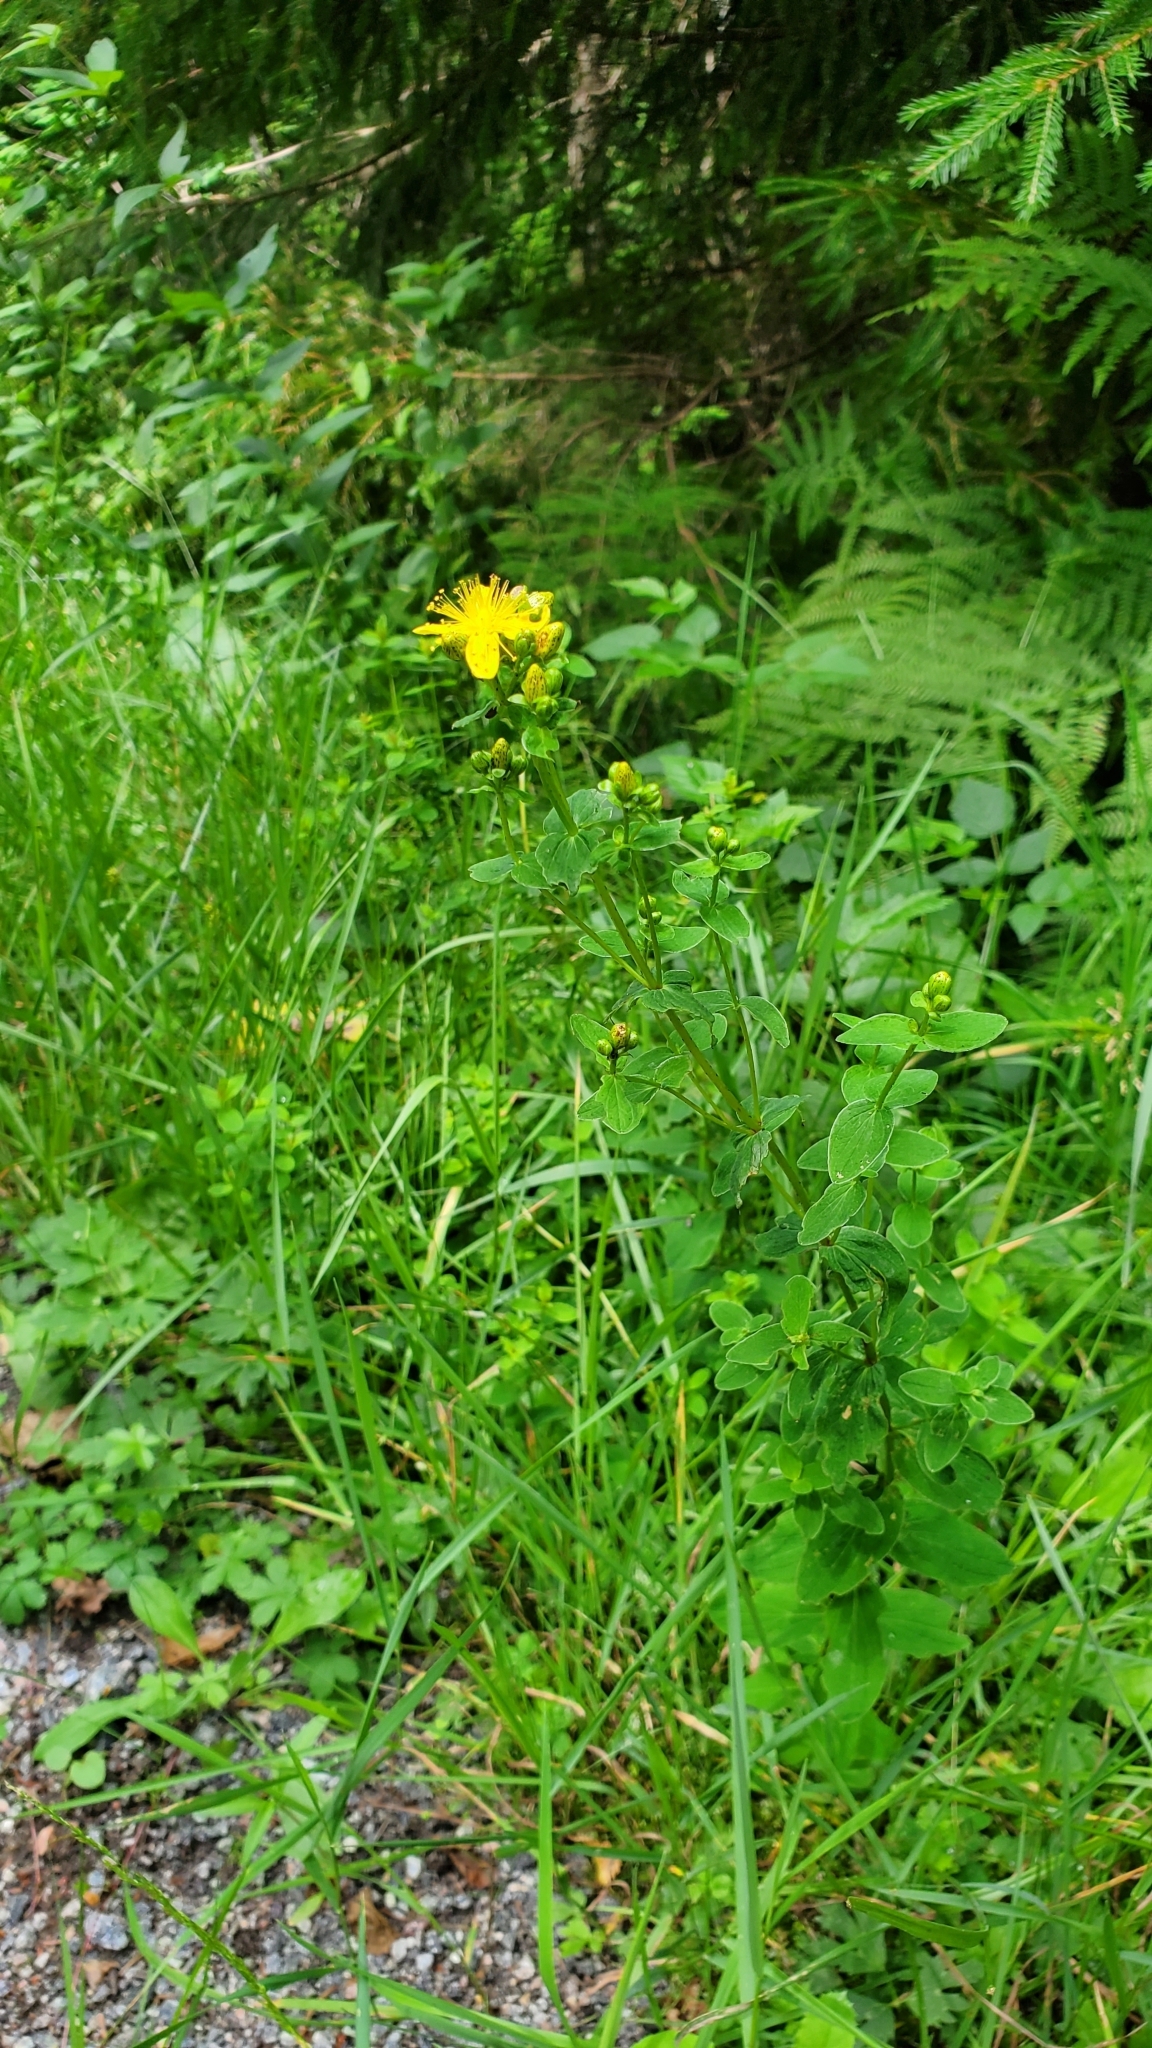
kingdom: Plantae
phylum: Tracheophyta
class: Magnoliopsida
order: Malpighiales
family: Hypericaceae
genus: Hypericum
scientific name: Hypericum maculatum
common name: Imperforate st. john's-wort
